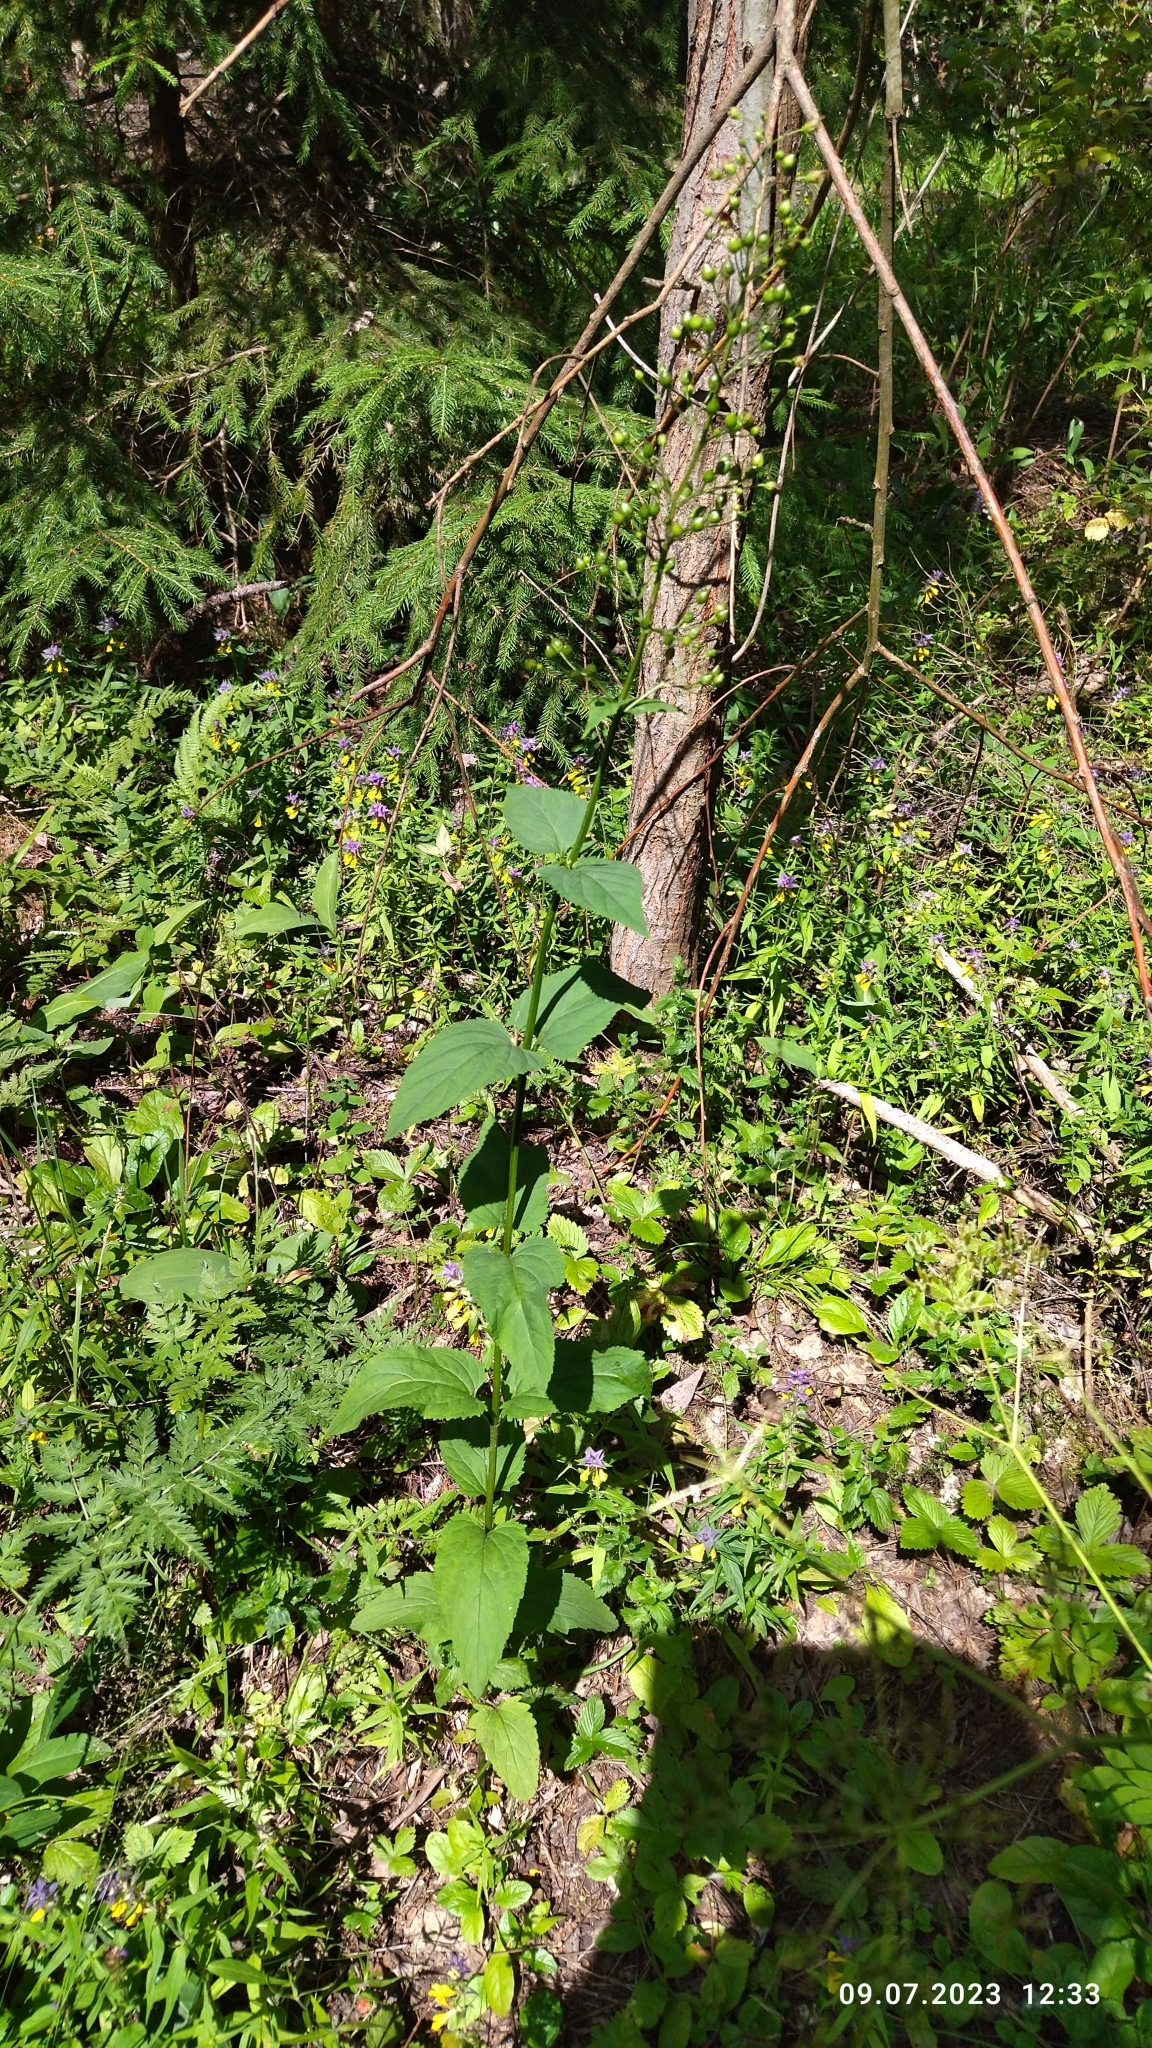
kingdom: Plantae
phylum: Tracheophyta
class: Magnoliopsida
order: Lamiales
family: Scrophulariaceae
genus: Scrophularia
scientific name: Scrophularia nodosa
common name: Common figwort
